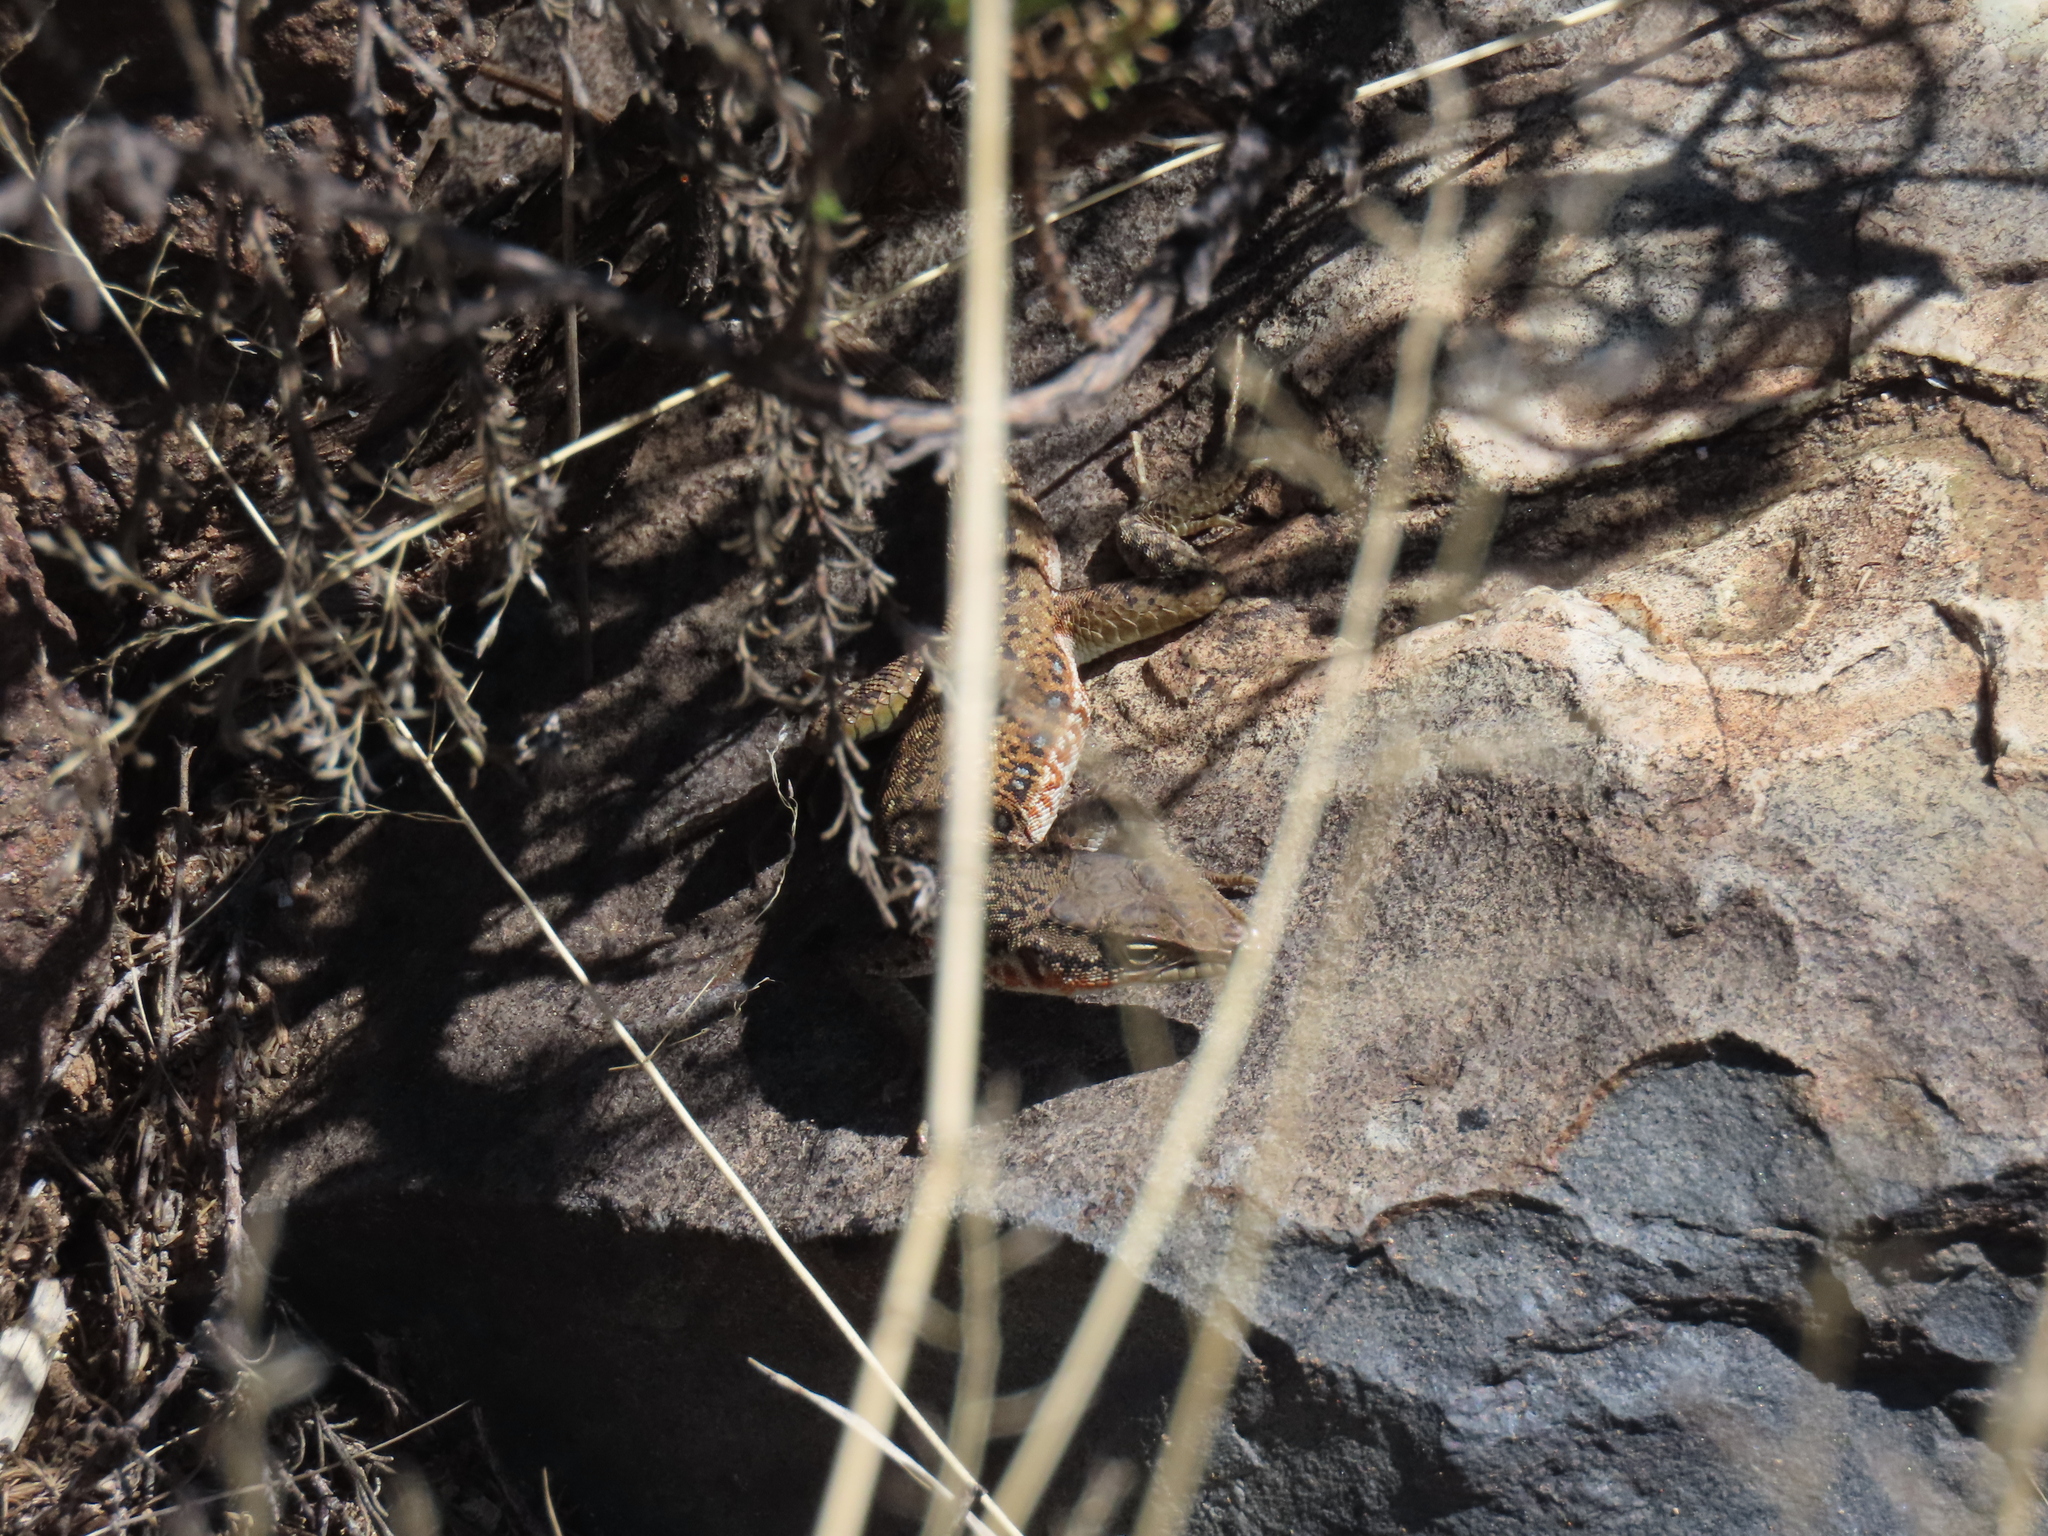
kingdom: Animalia
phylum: Chordata
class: Squamata
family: Lacertidae
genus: Pedioplanis
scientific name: Pedioplanis lineoocellata
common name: Spotted sand lizard
